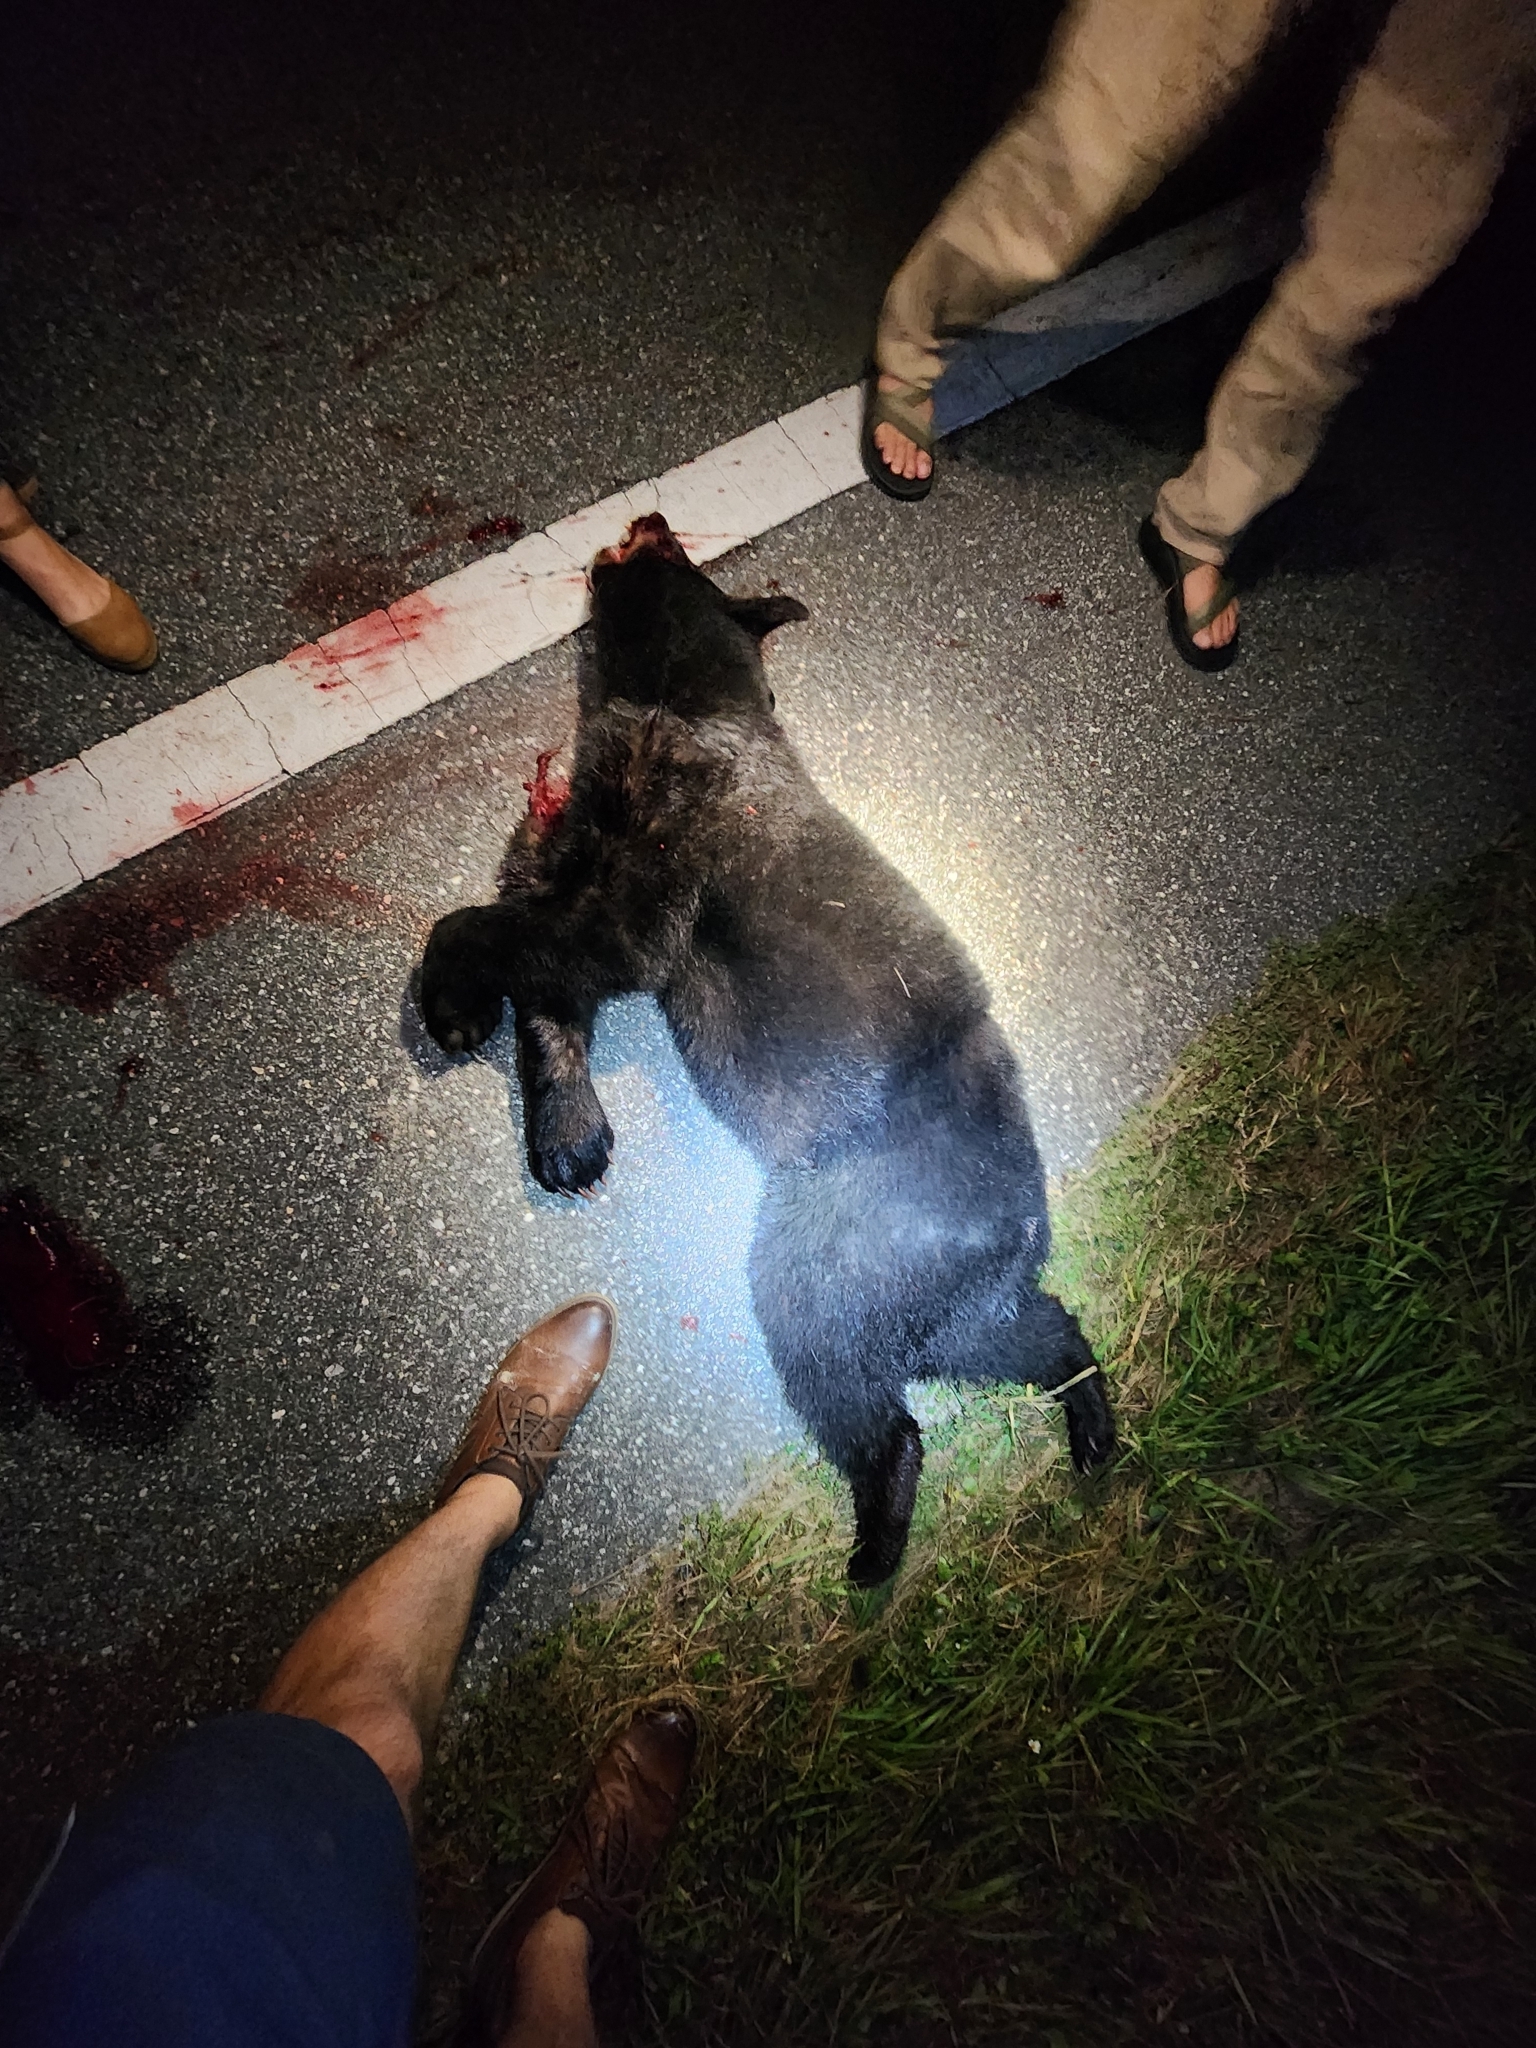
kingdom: Animalia
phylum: Chordata
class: Mammalia
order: Carnivora
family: Ursidae
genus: Ursus
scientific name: Ursus americanus
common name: American black bear
